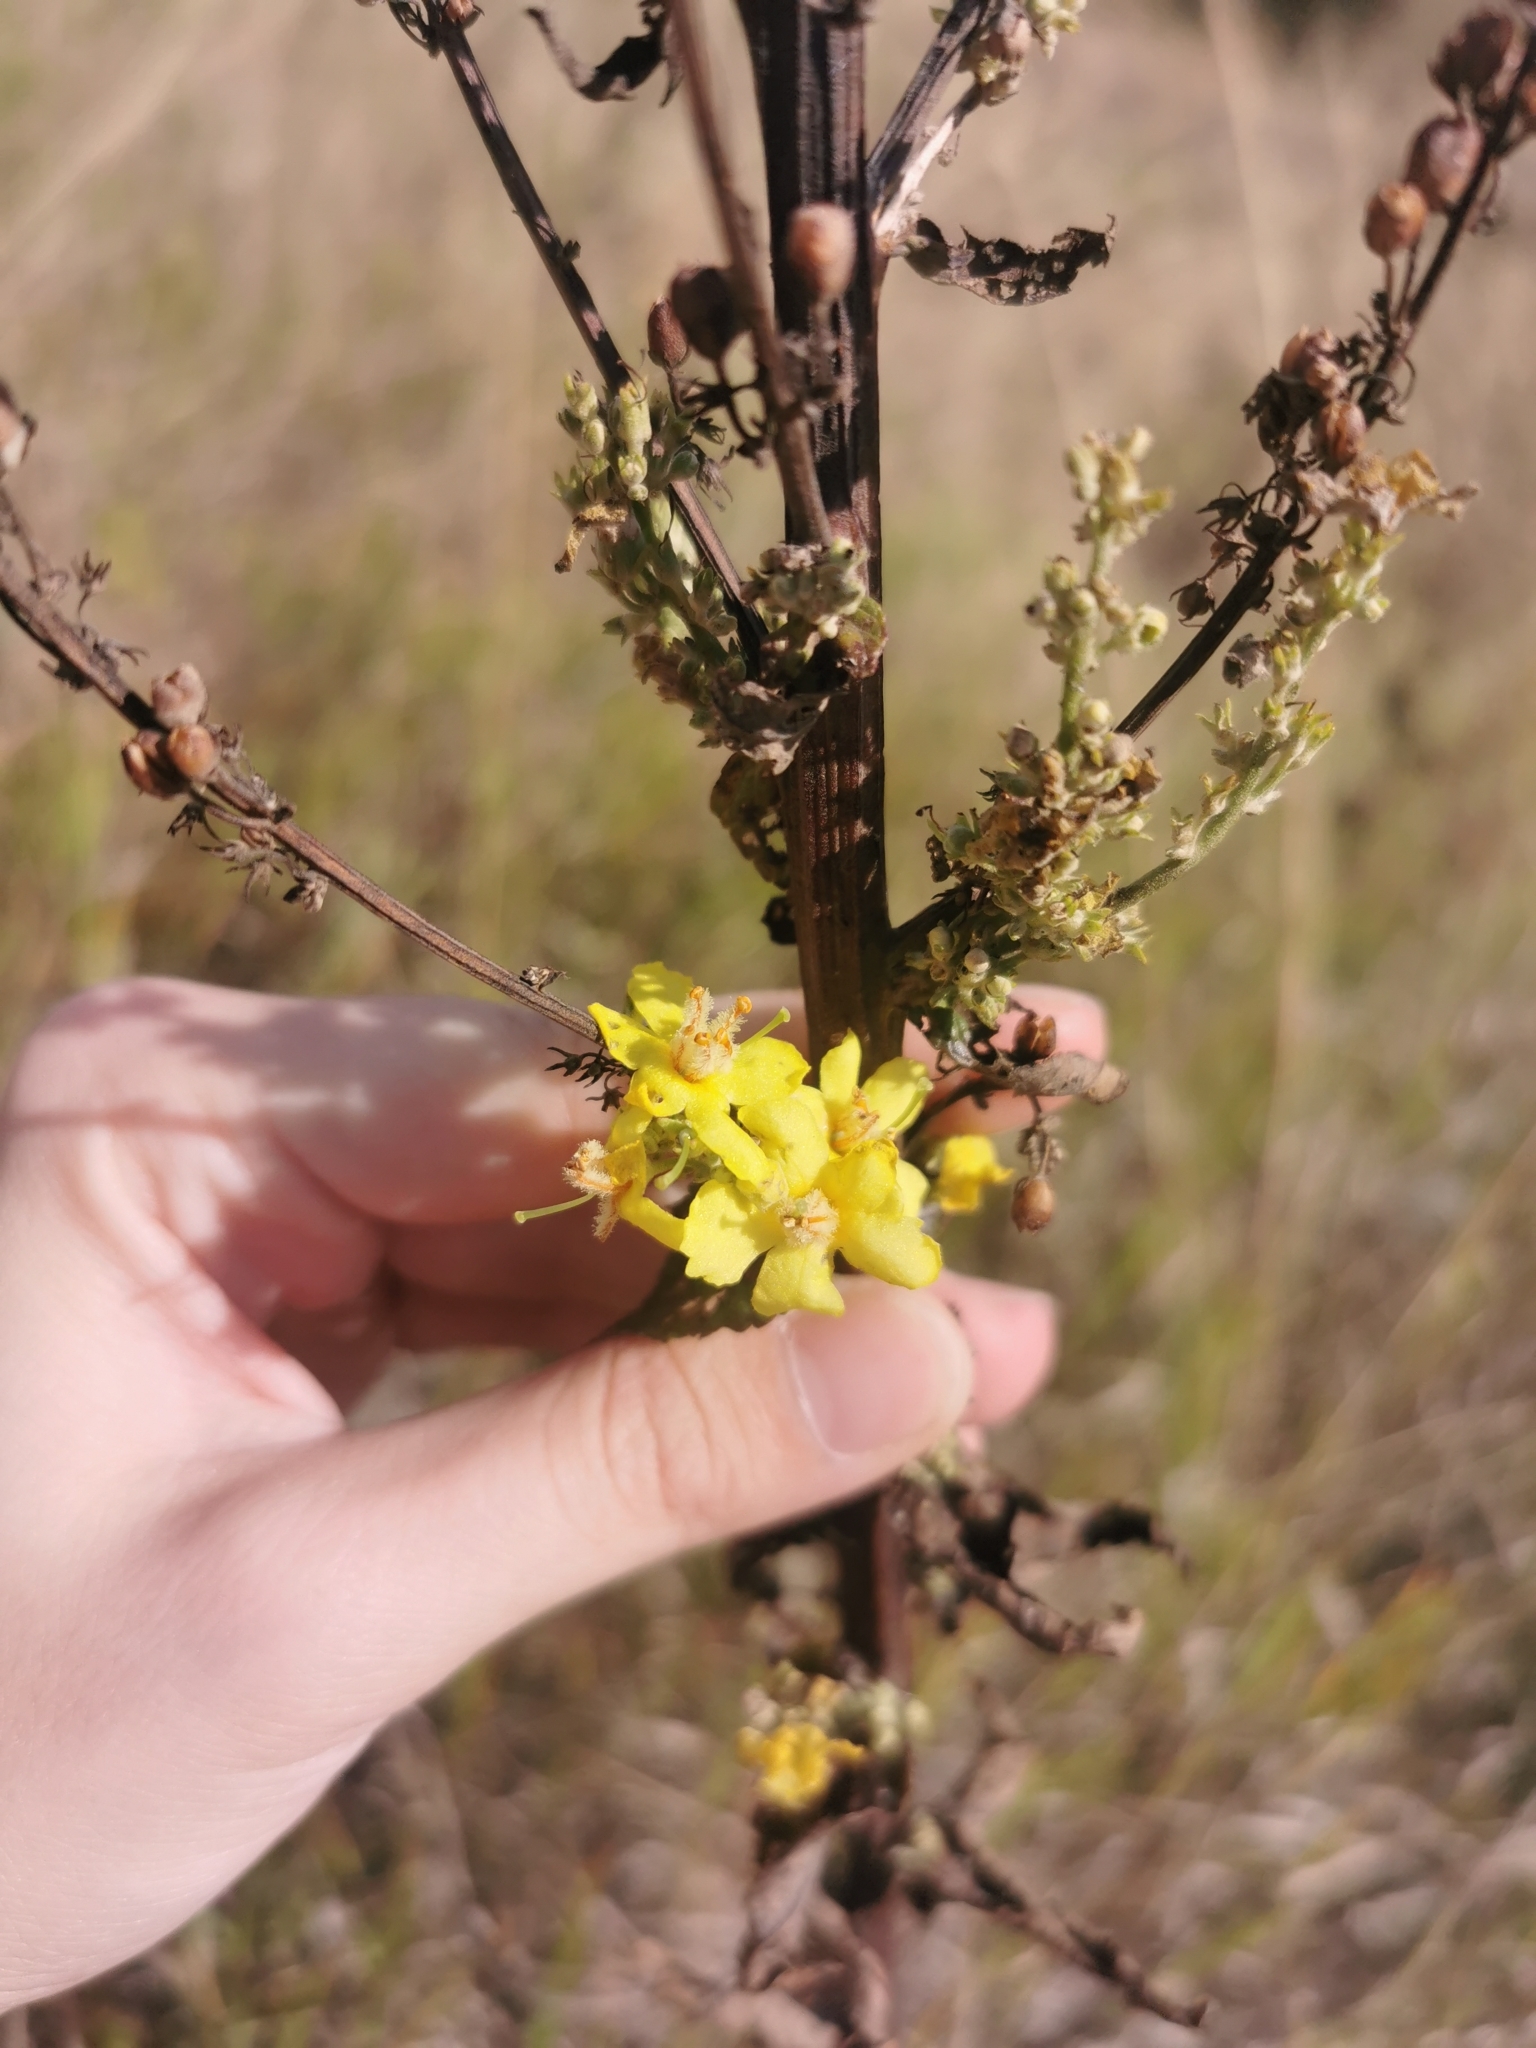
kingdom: Plantae
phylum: Tracheophyta
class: Magnoliopsida
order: Lamiales
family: Scrophulariaceae
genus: Verbascum
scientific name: Verbascum lychnitis
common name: White mullein
